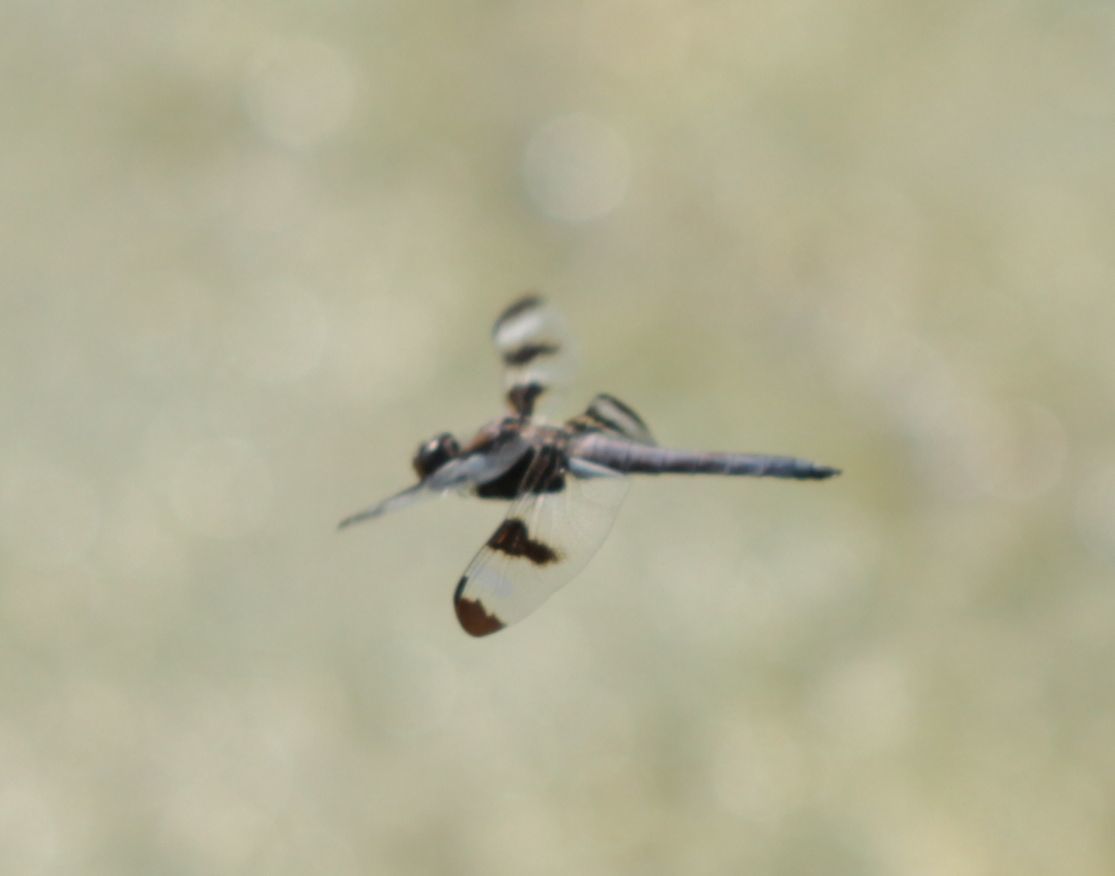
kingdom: Animalia
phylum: Arthropoda
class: Insecta
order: Odonata
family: Libellulidae
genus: Libellula
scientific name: Libellula pulchella
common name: Twelve-spotted skimmer
